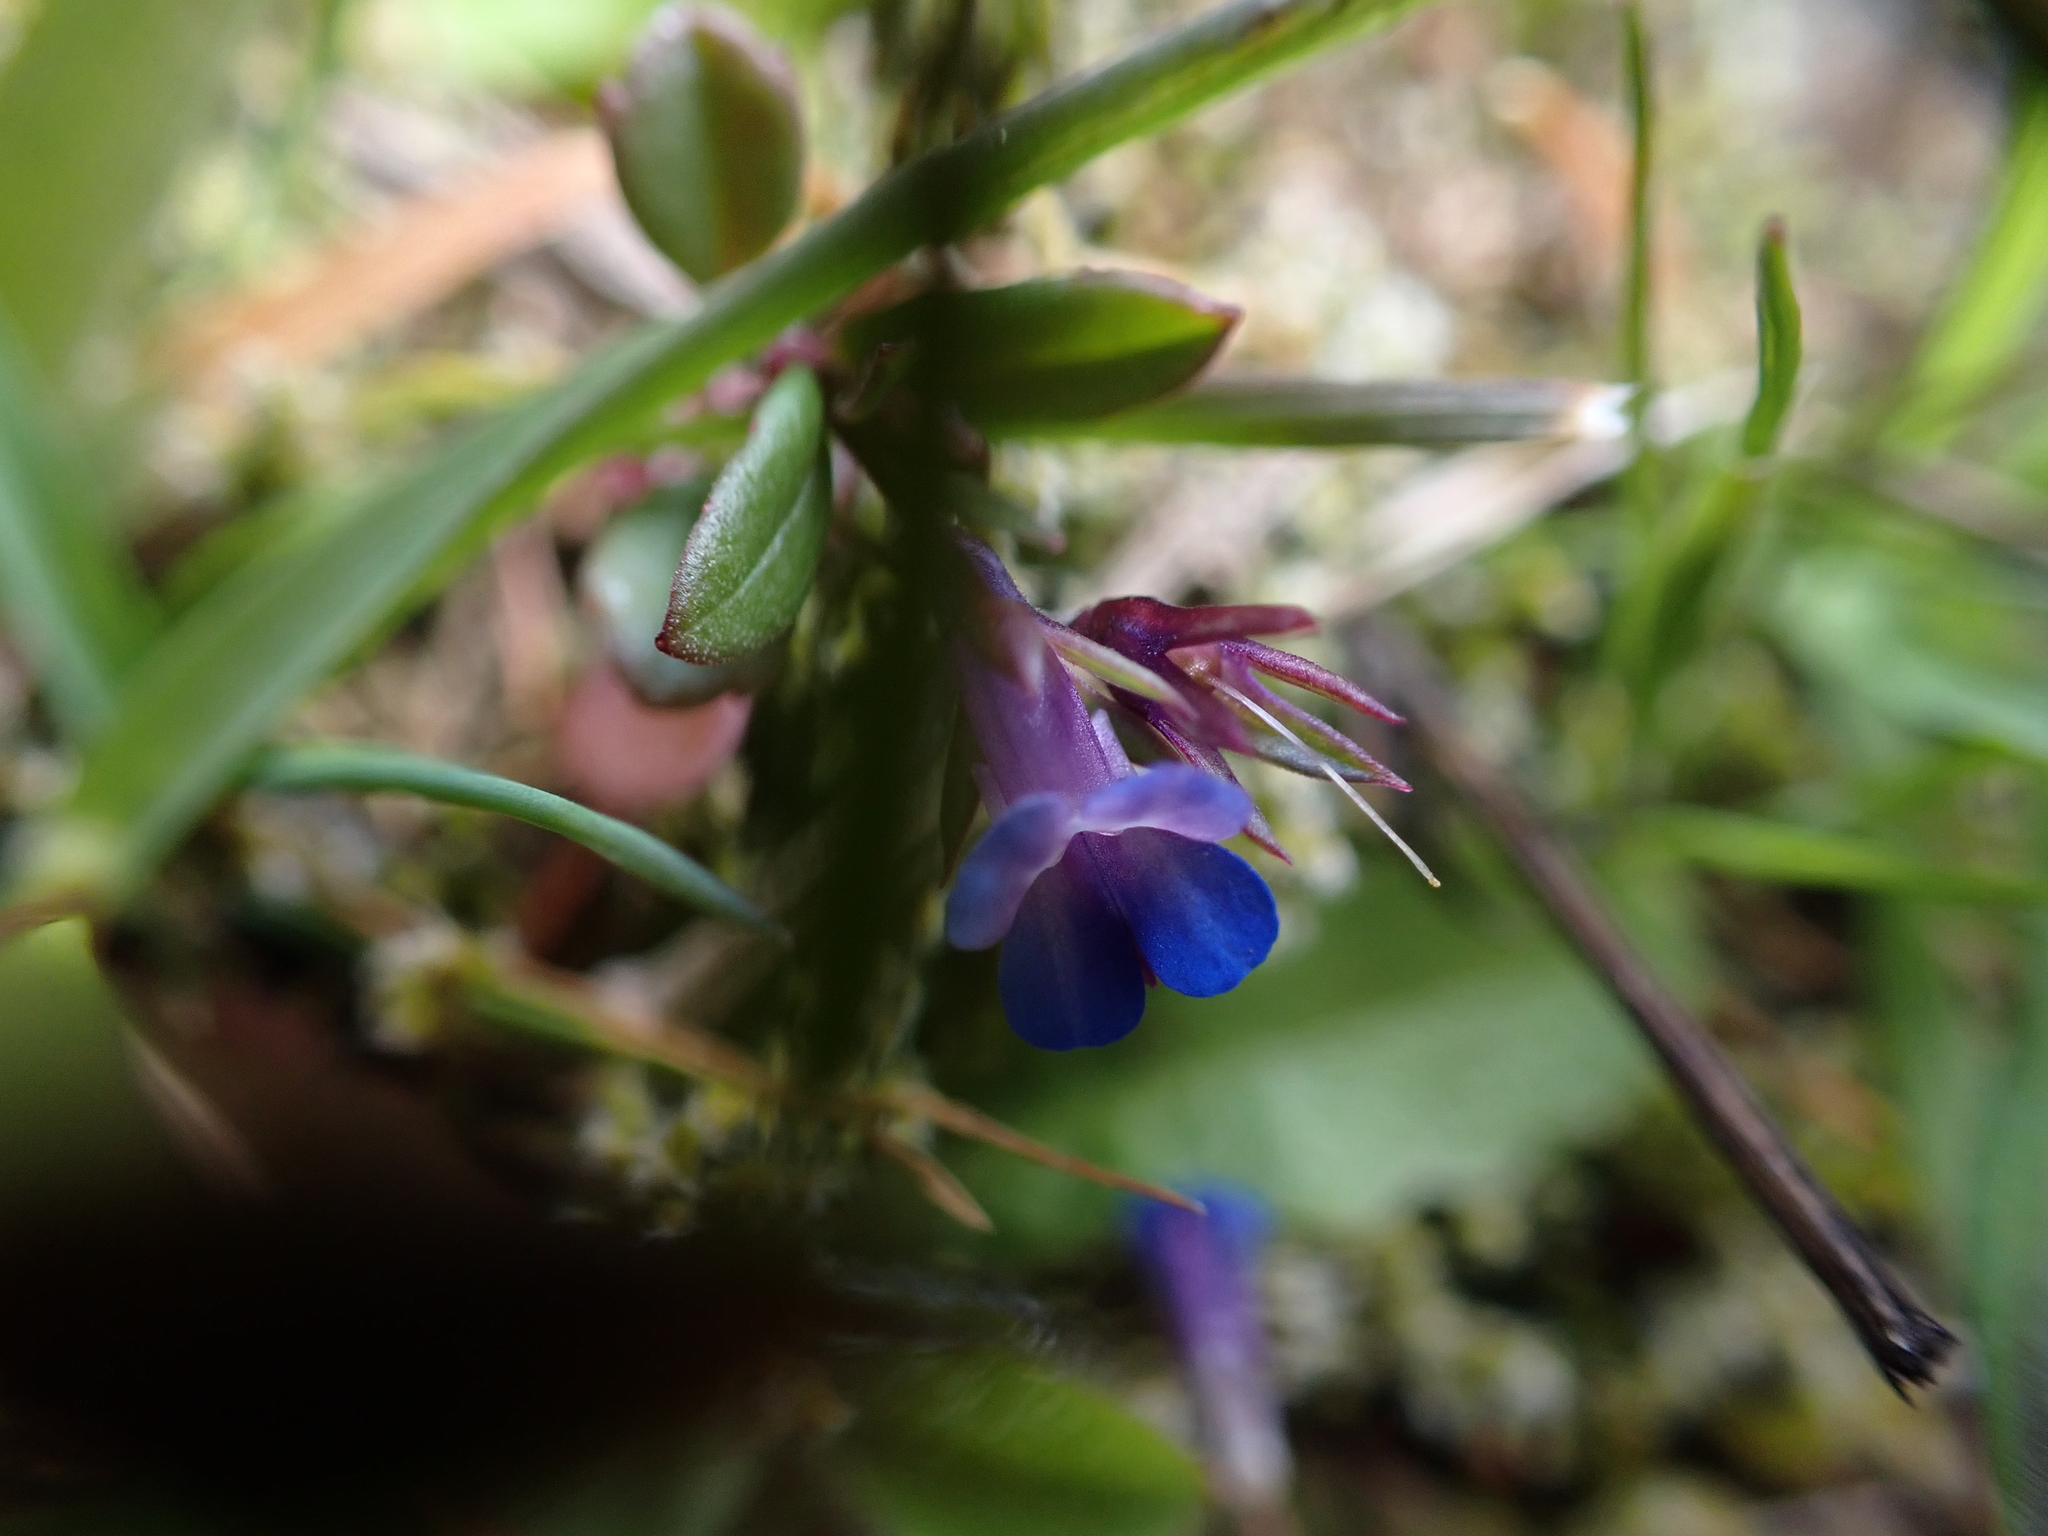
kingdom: Plantae
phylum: Tracheophyta
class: Magnoliopsida
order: Lamiales
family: Plantaginaceae
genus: Collinsia
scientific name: Collinsia parviflora
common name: Blue-lips
